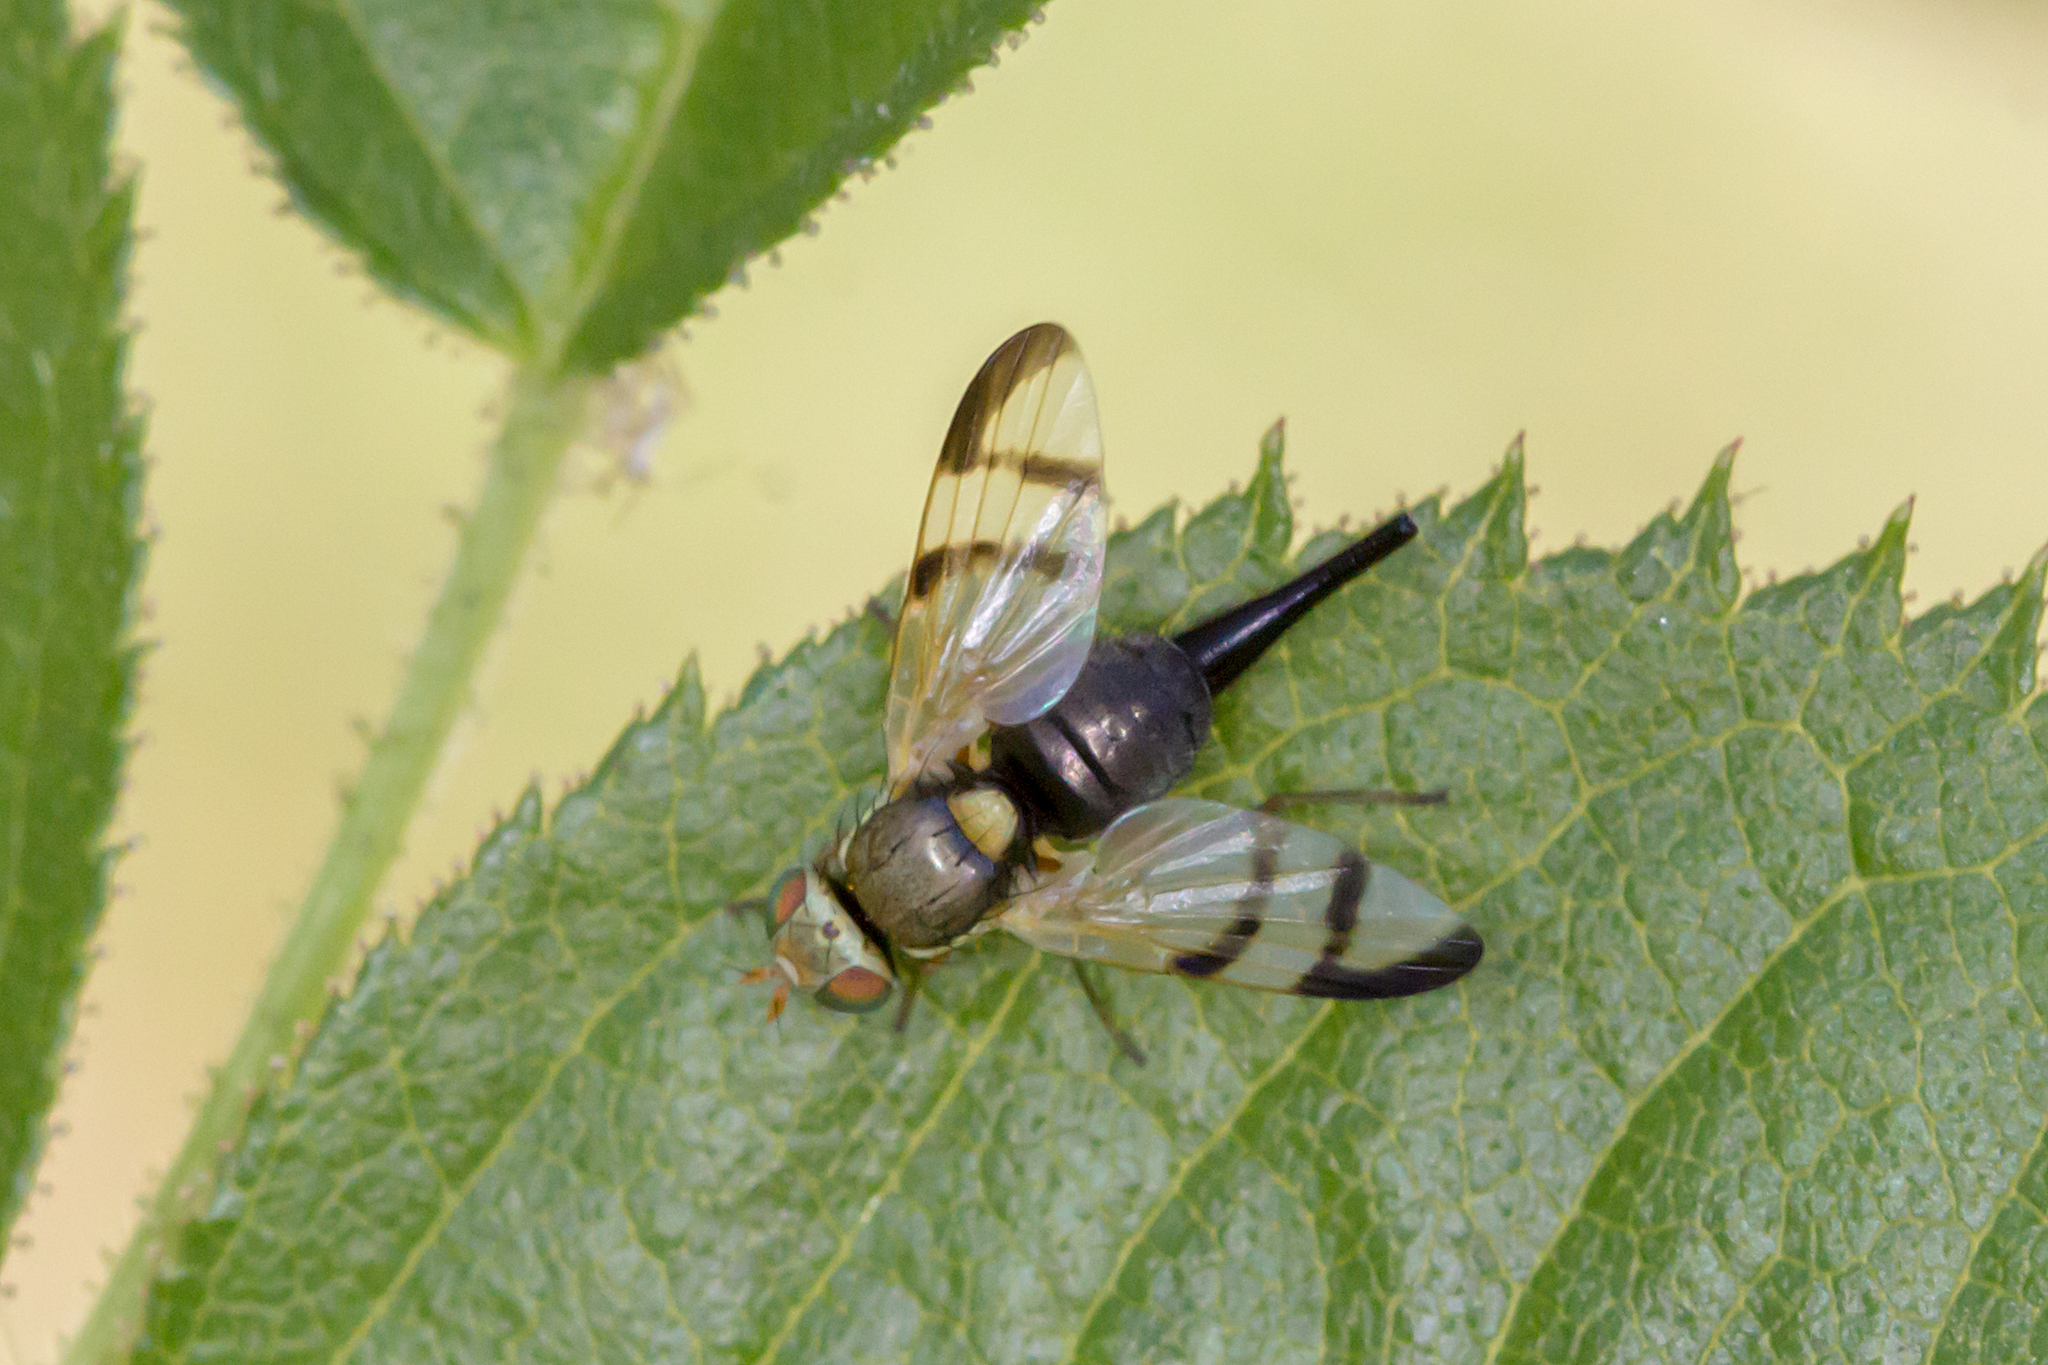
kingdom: Animalia
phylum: Arthropoda
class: Insecta
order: Diptera
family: Tephritidae
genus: Urophora
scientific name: Urophora stylata
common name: Fruit fly
